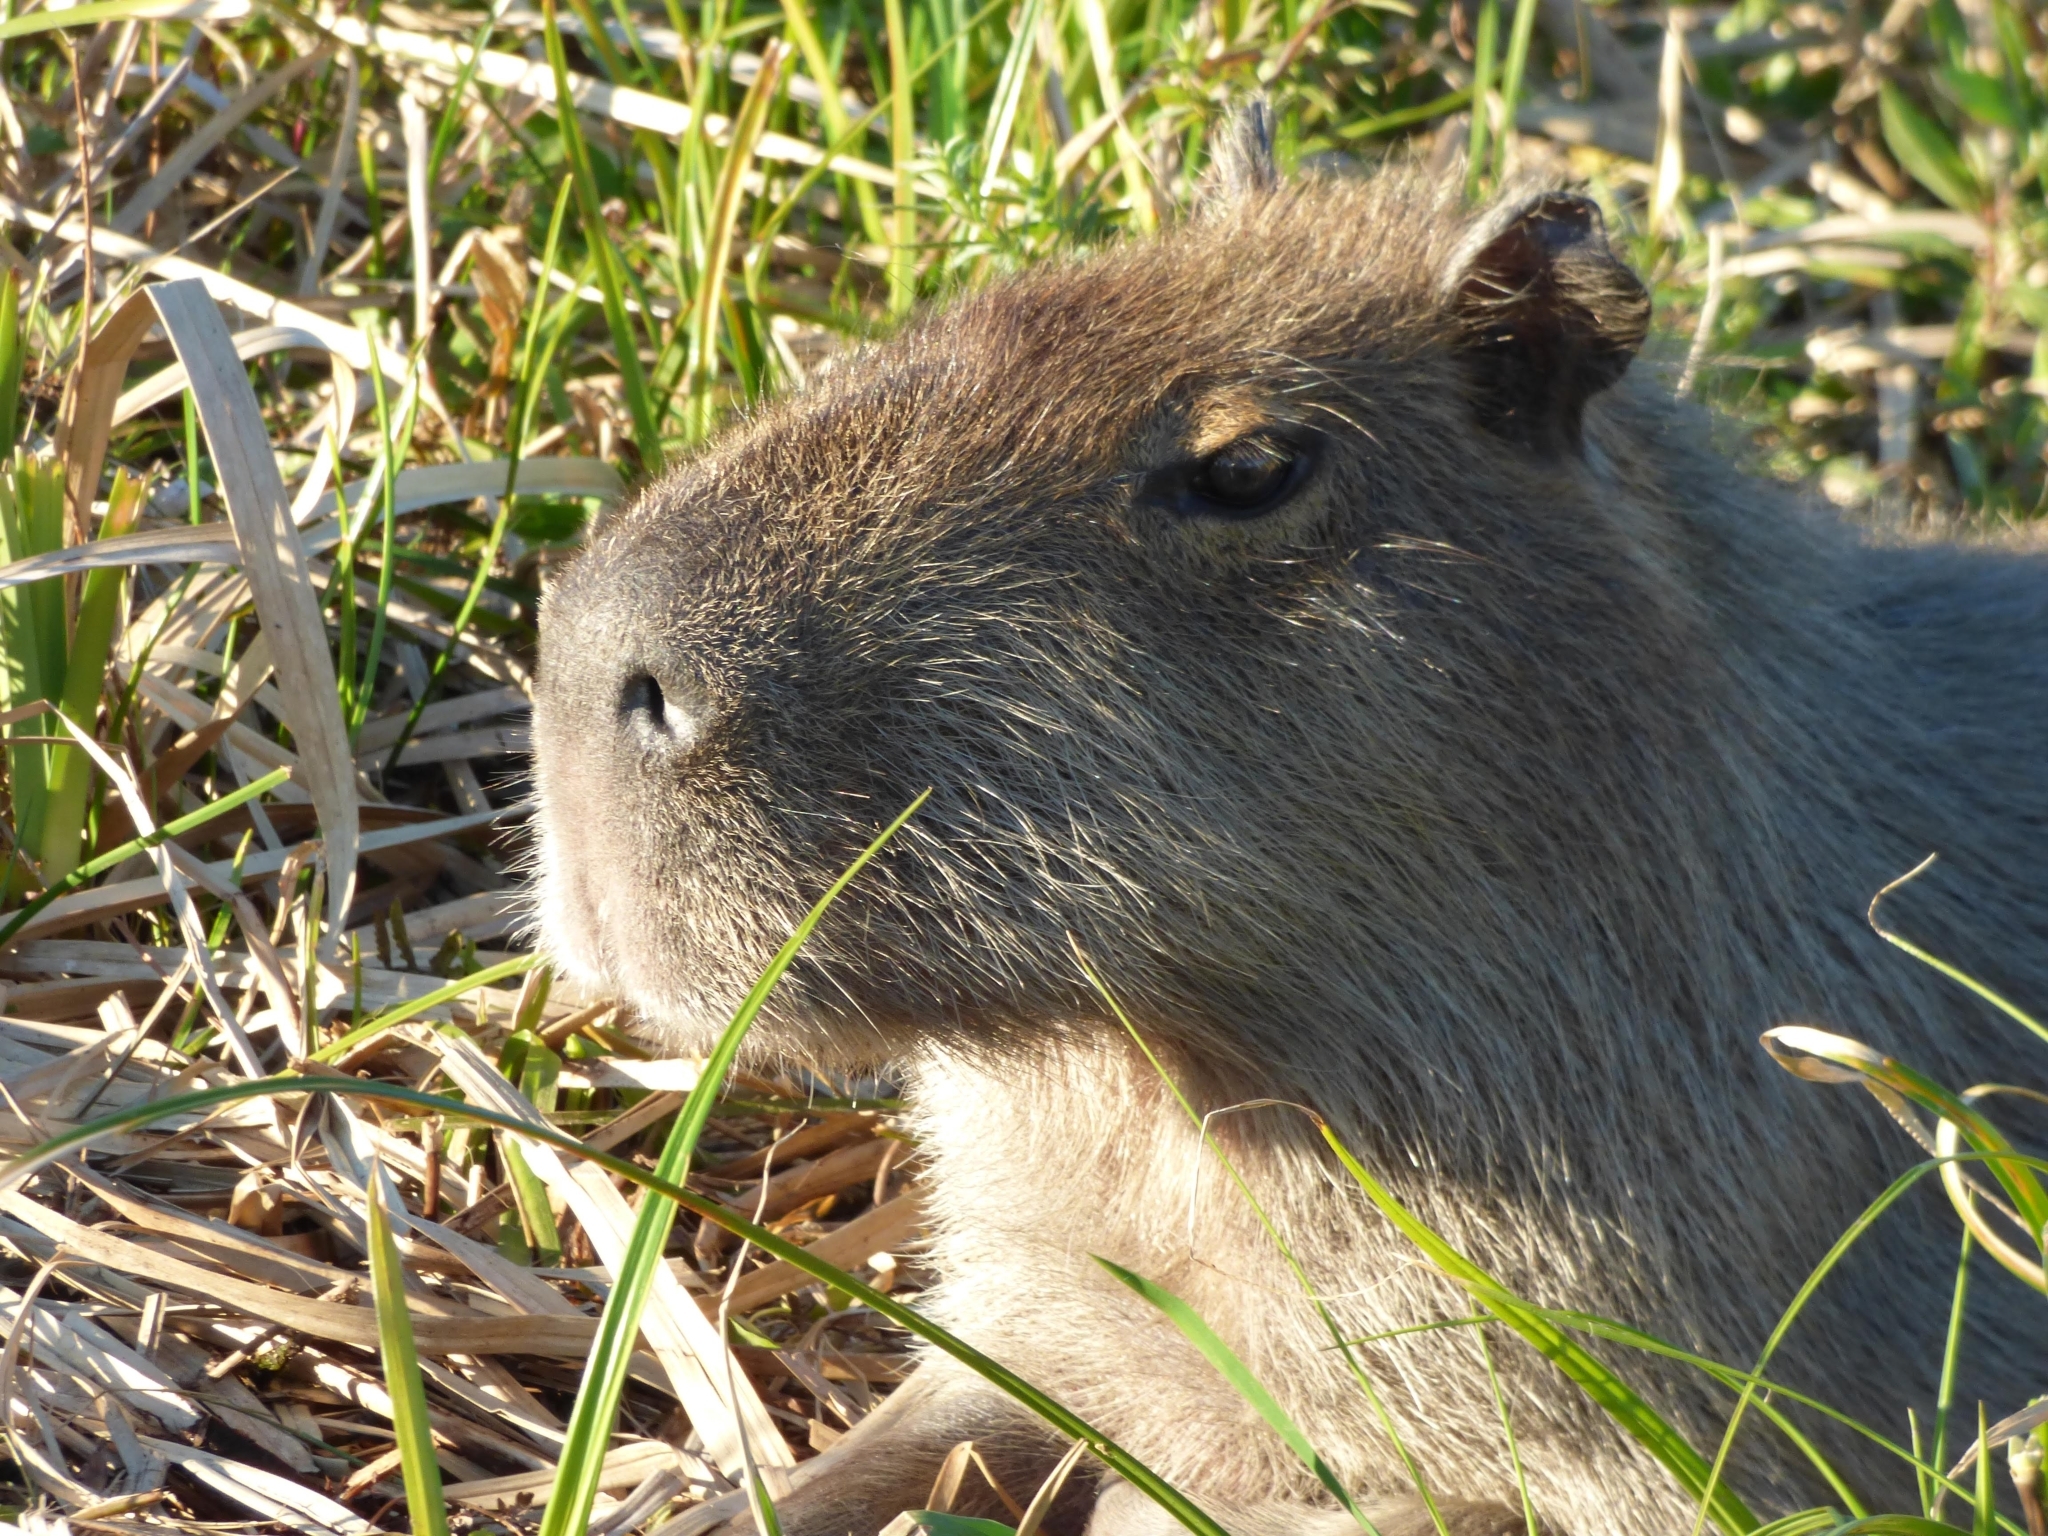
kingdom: Animalia
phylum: Chordata
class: Mammalia
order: Rodentia
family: Caviidae
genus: Hydrochoerus
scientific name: Hydrochoerus hydrochaeris
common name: Capybara
